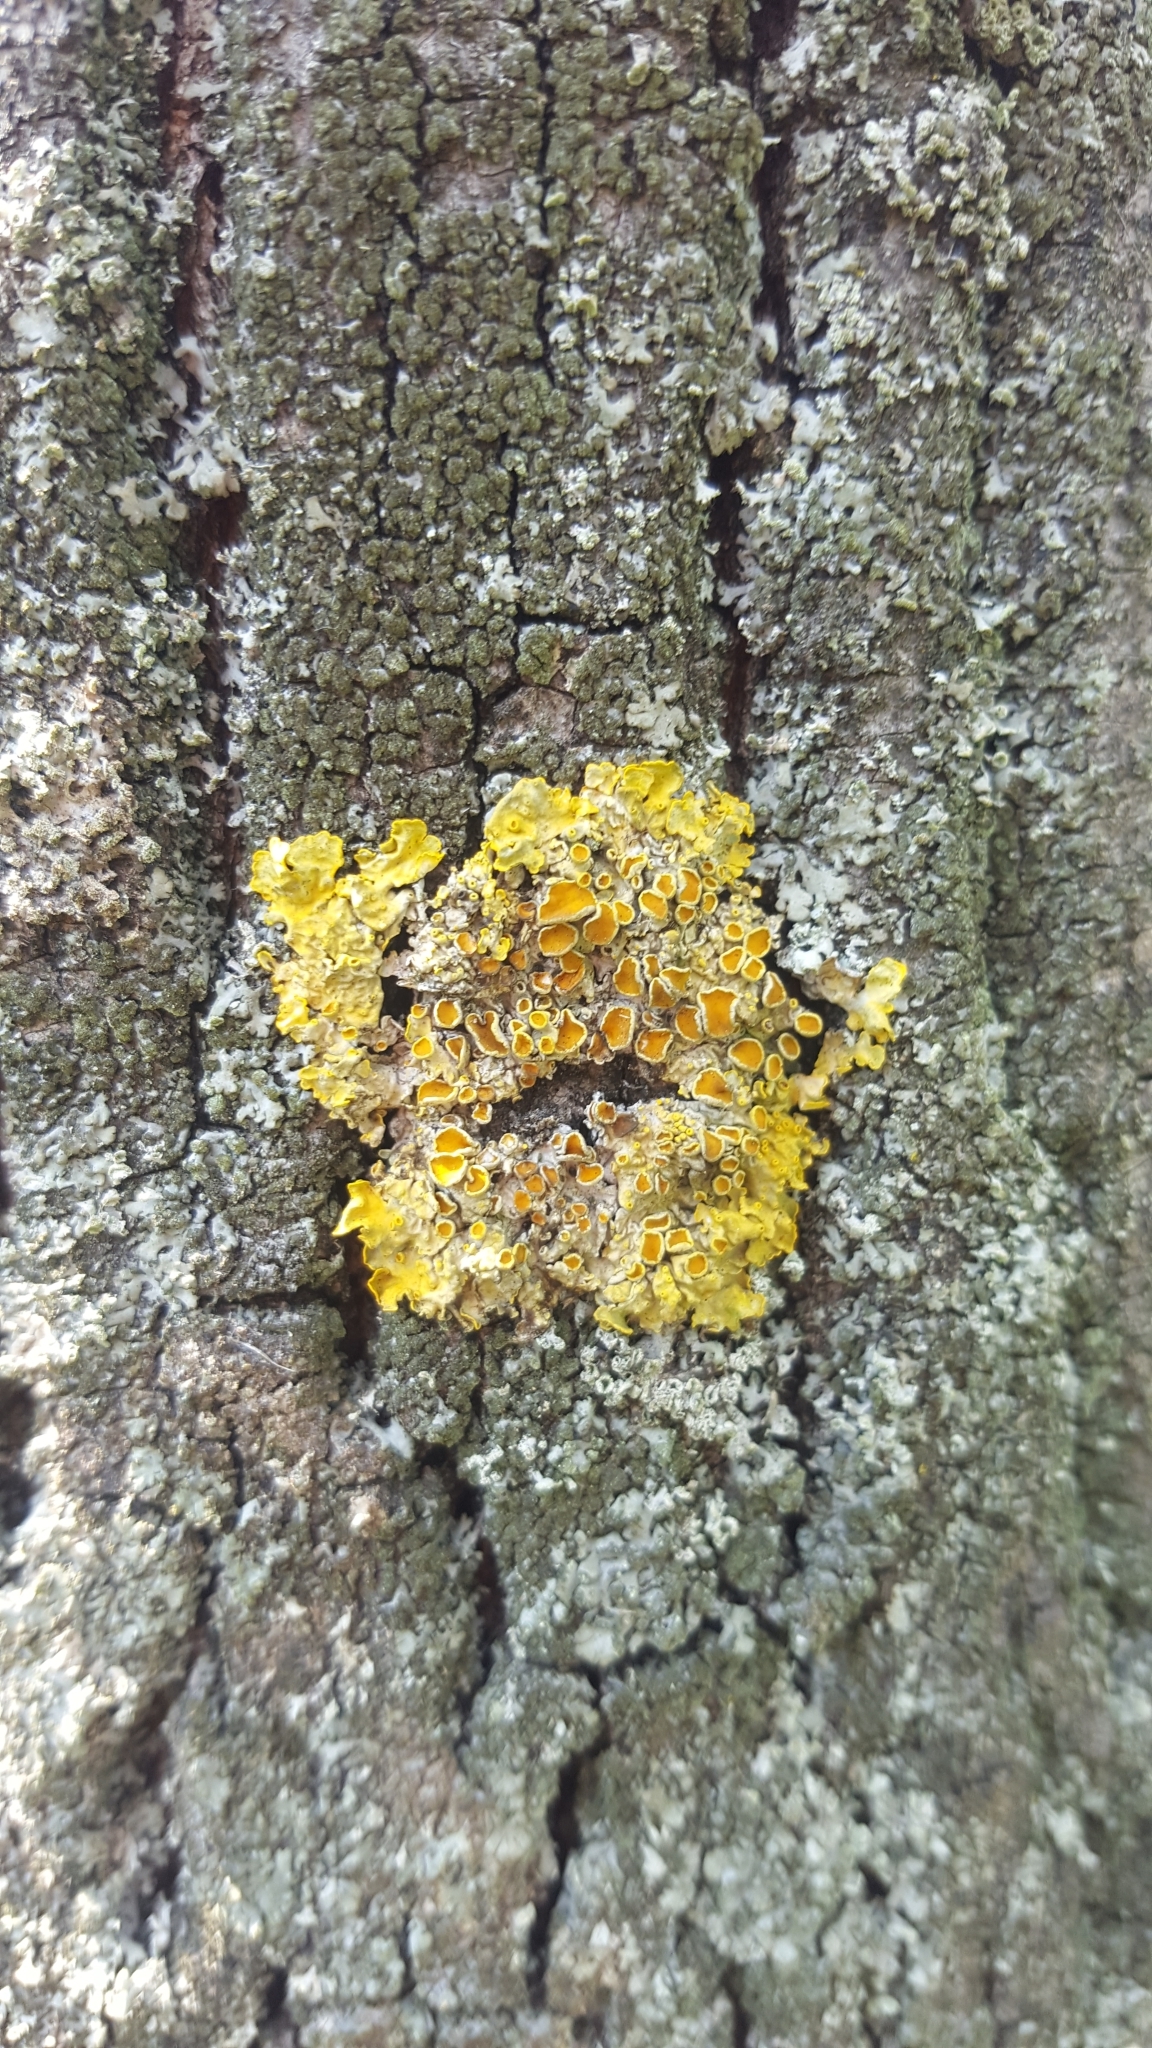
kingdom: Fungi
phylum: Ascomycota
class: Lecanoromycetes
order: Teloschistales
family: Teloschistaceae
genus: Xanthoria
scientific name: Xanthoria parietina
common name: Common orange lichen
